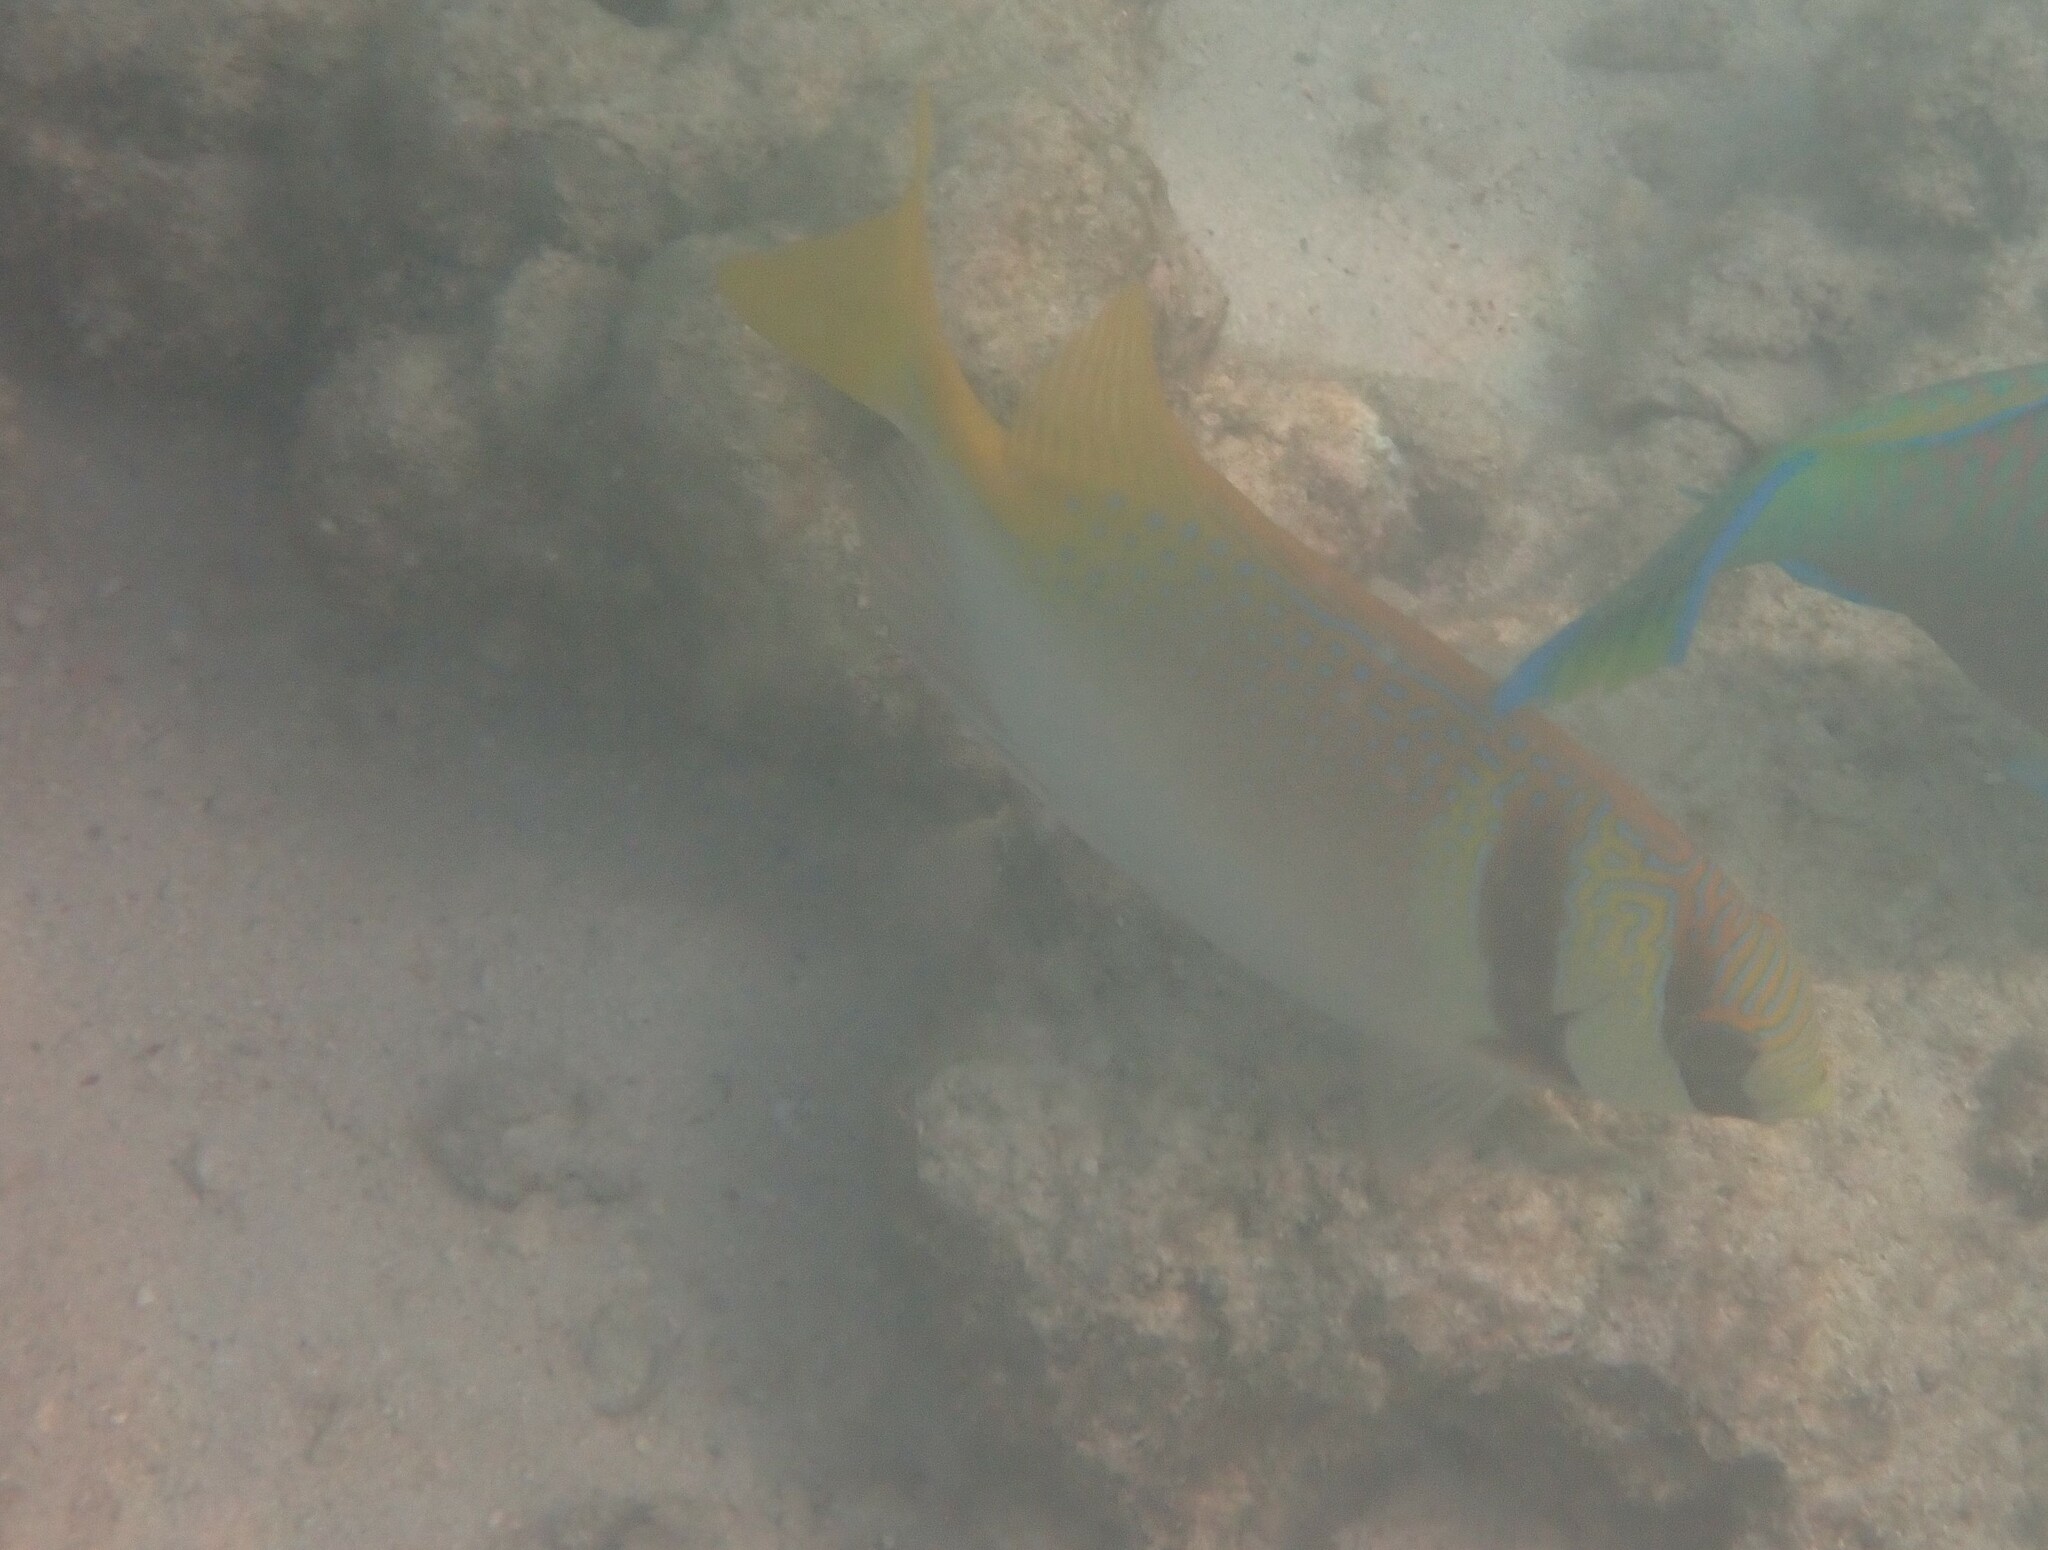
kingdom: Animalia
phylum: Chordata
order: Perciformes
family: Siganidae
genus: Siganus
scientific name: Siganus virgatus
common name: Barhead spinefoot
